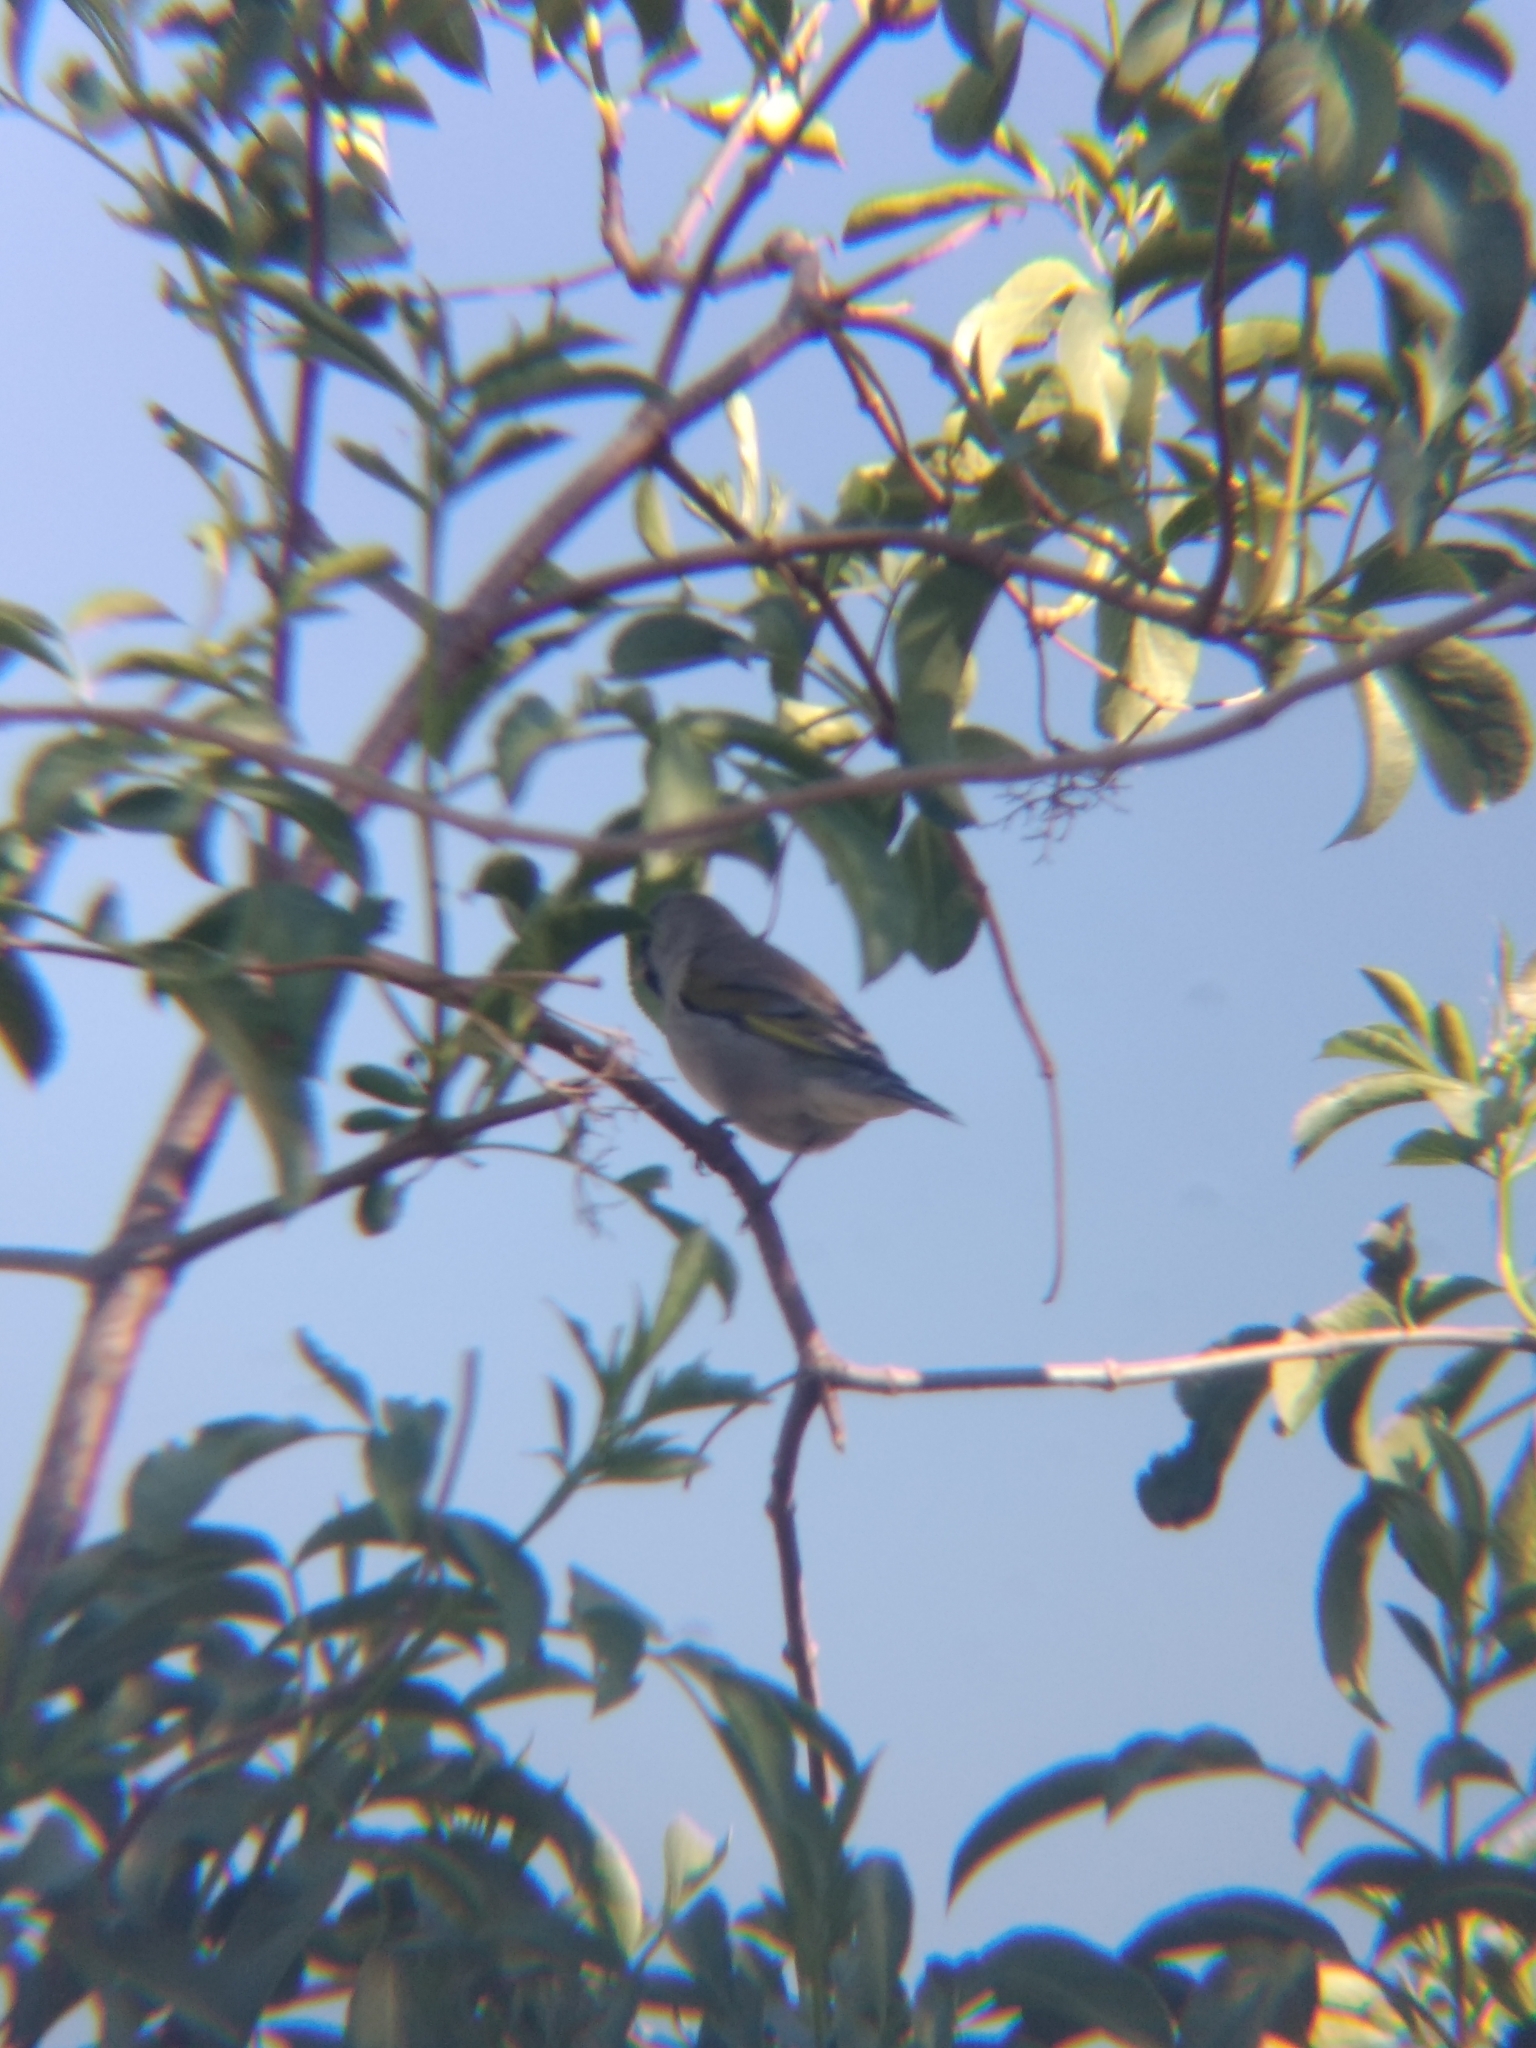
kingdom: Animalia
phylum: Chordata
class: Aves
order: Passeriformes
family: Fringillidae
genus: Spinus
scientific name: Spinus lawrencei
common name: Lawrence's goldfinch
